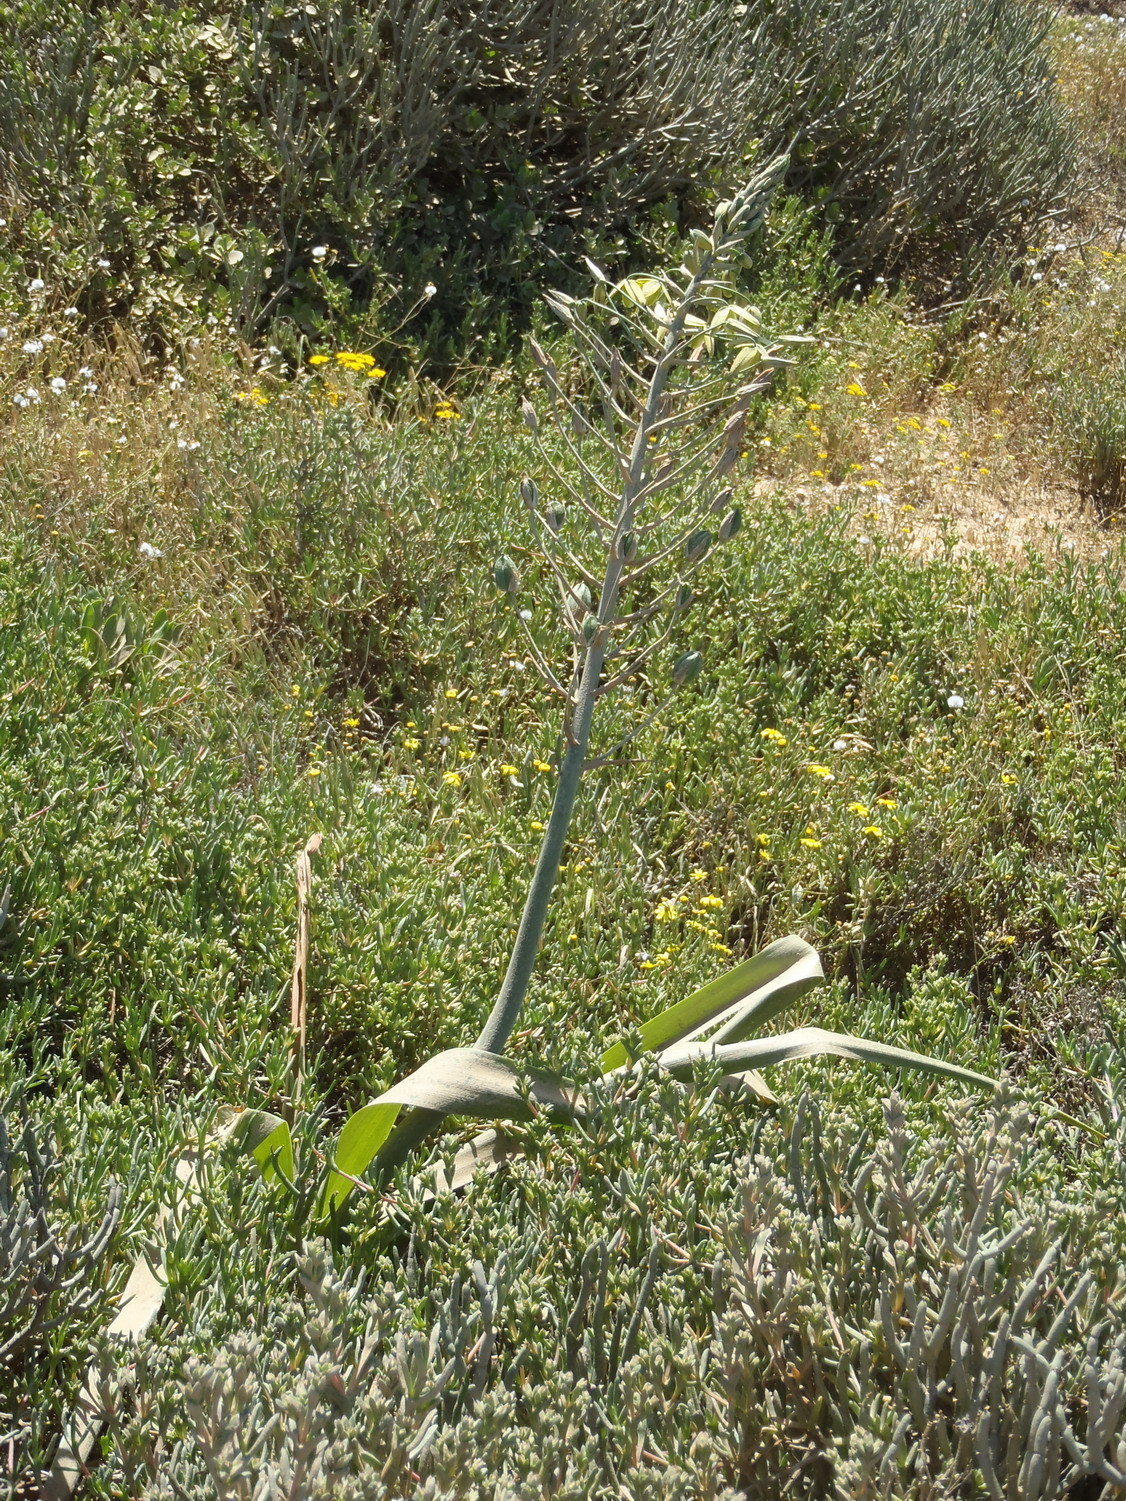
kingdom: Plantae
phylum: Tracheophyta
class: Liliopsida
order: Asparagales
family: Asparagaceae
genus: Albuca
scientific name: Albuca flaccida
